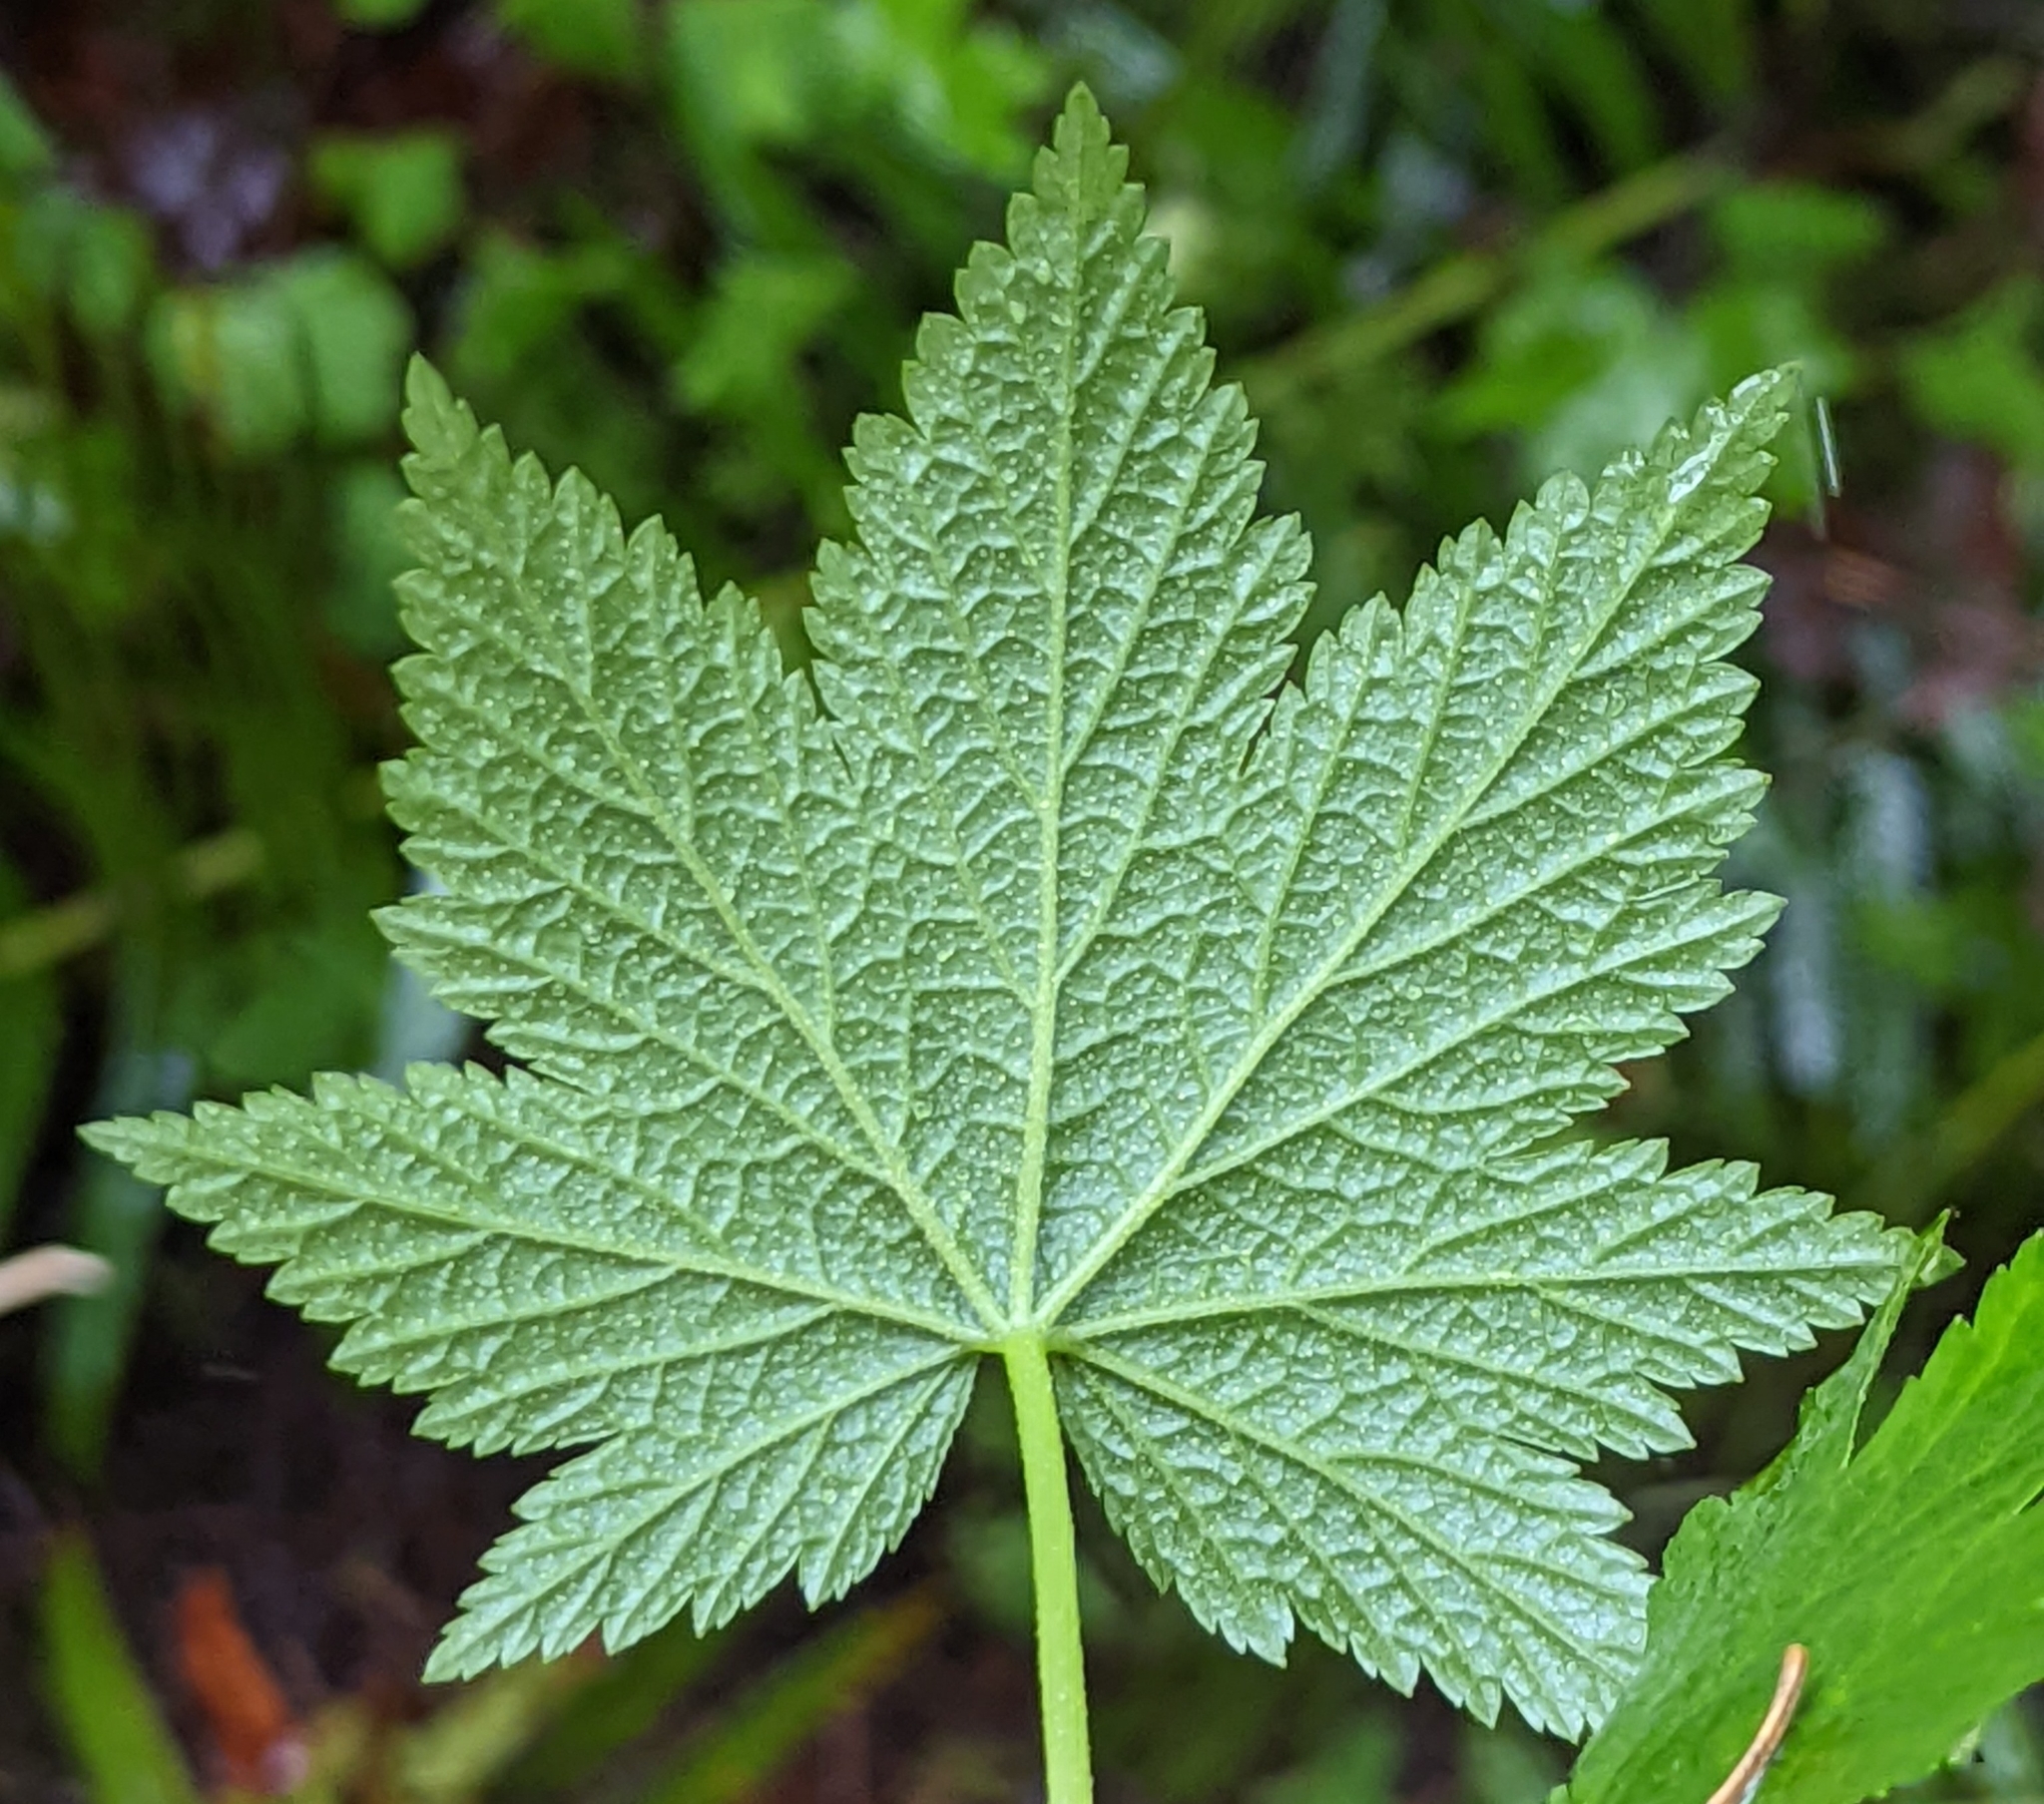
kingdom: Plantae
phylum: Tracheophyta
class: Magnoliopsida
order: Saxifragales
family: Grossulariaceae
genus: Ribes
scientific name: Ribes bracteosum
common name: California black currant
